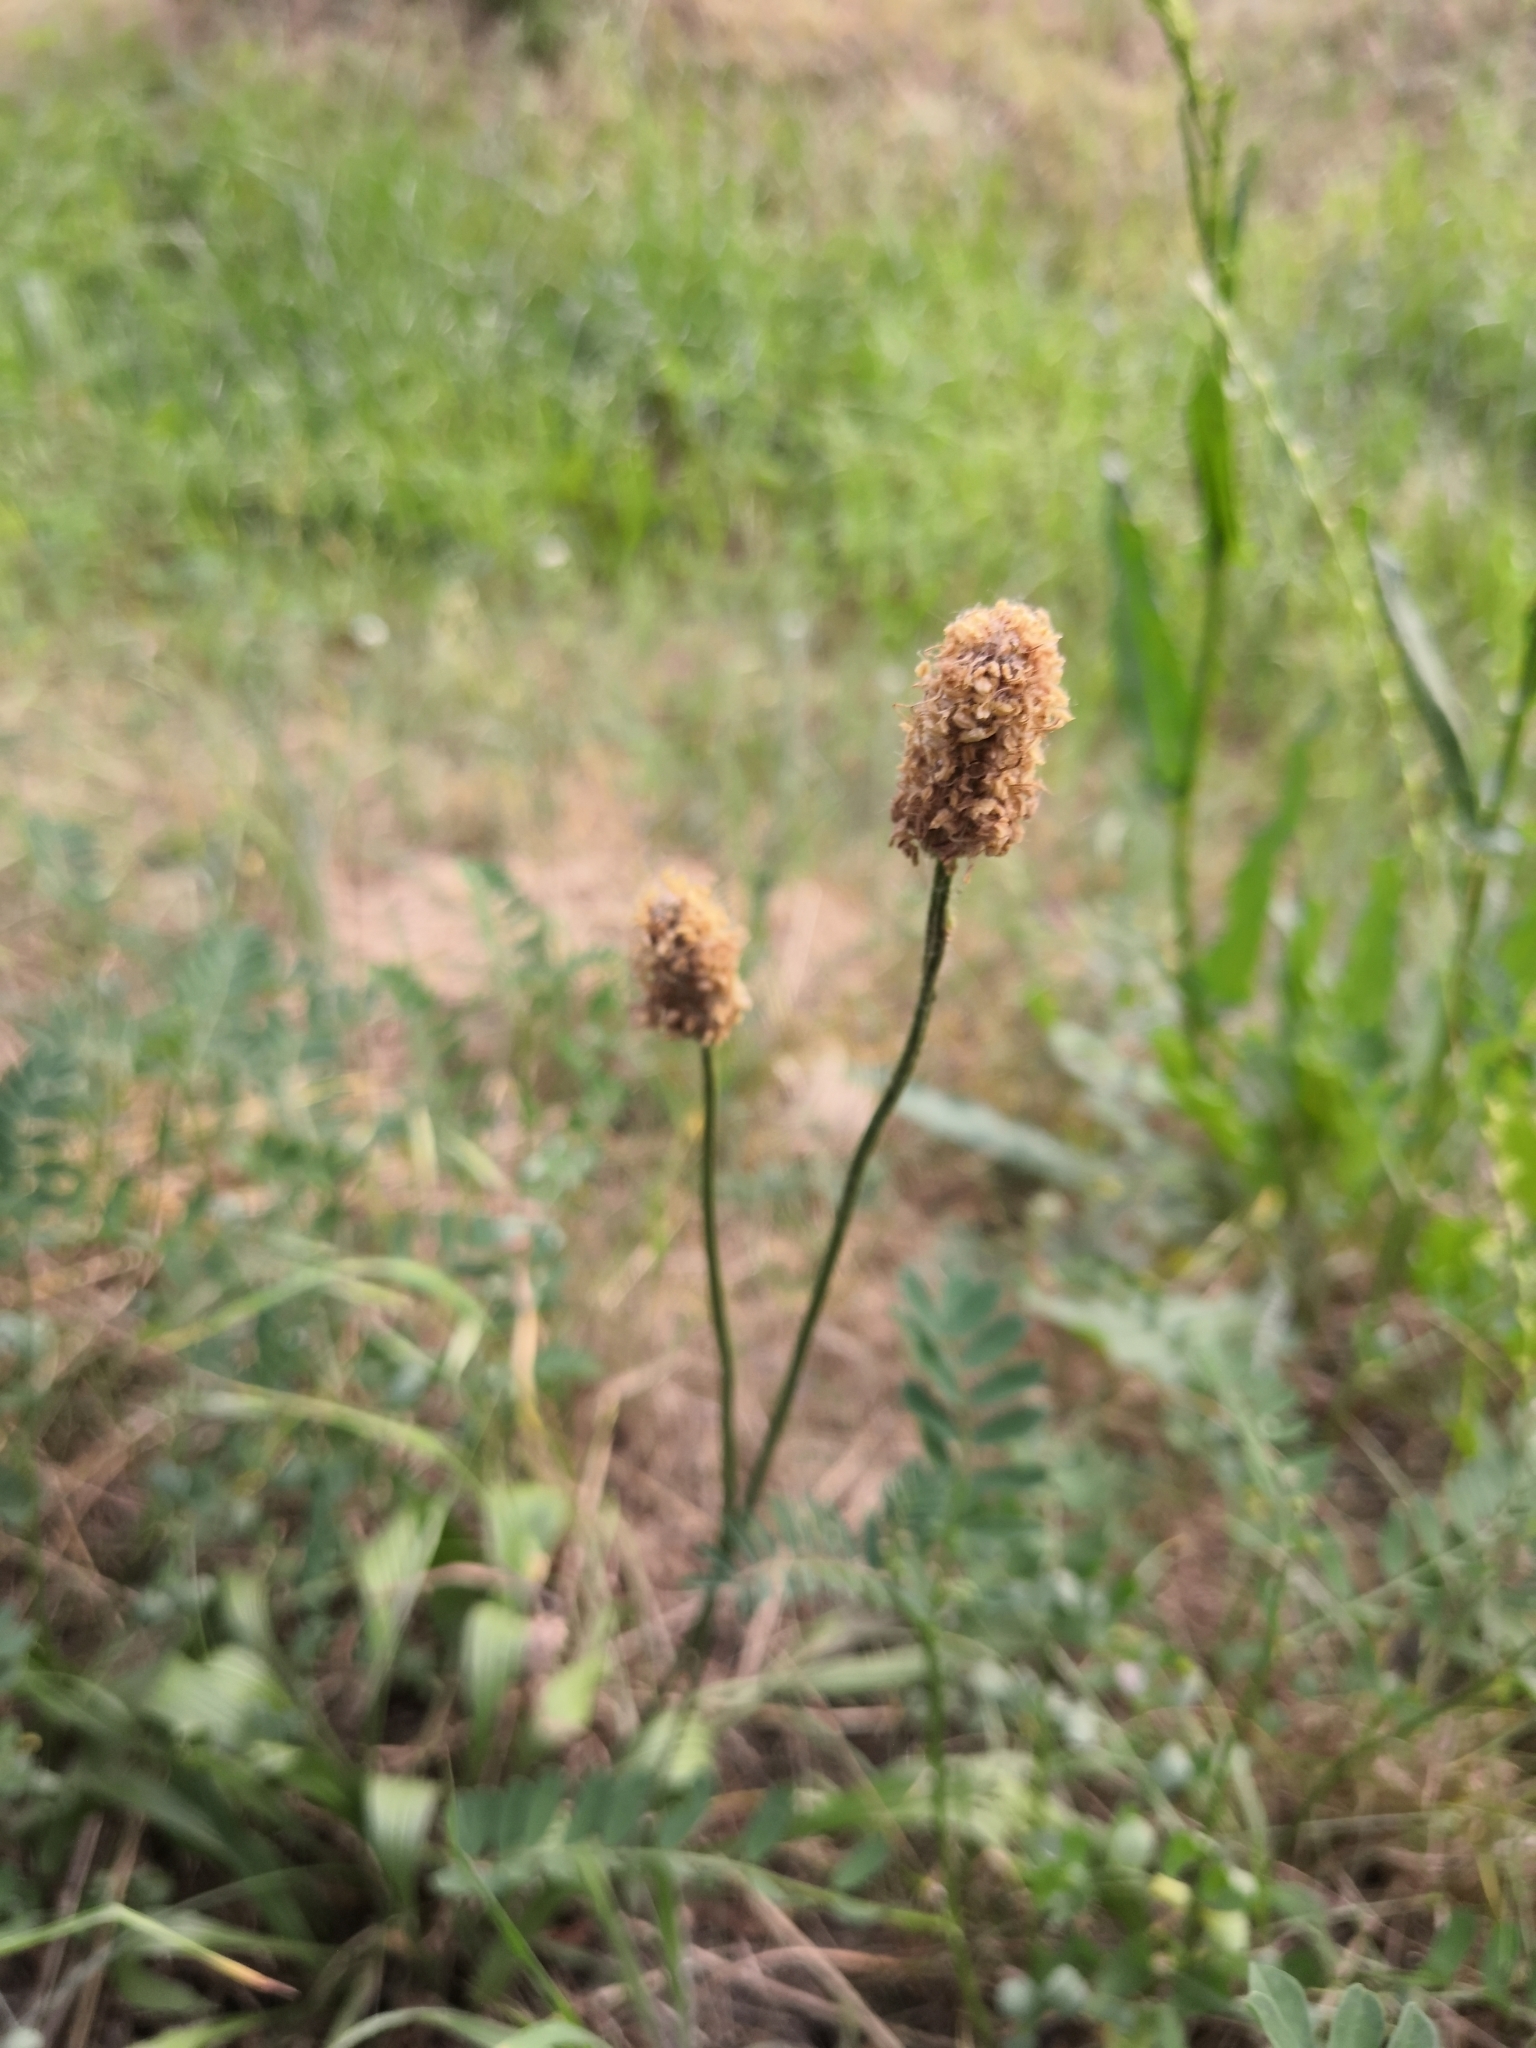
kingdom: Plantae
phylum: Tracheophyta
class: Magnoliopsida
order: Lamiales
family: Plantaginaceae
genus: Plantago
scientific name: Plantago lanceolata
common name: Ribwort plantain
